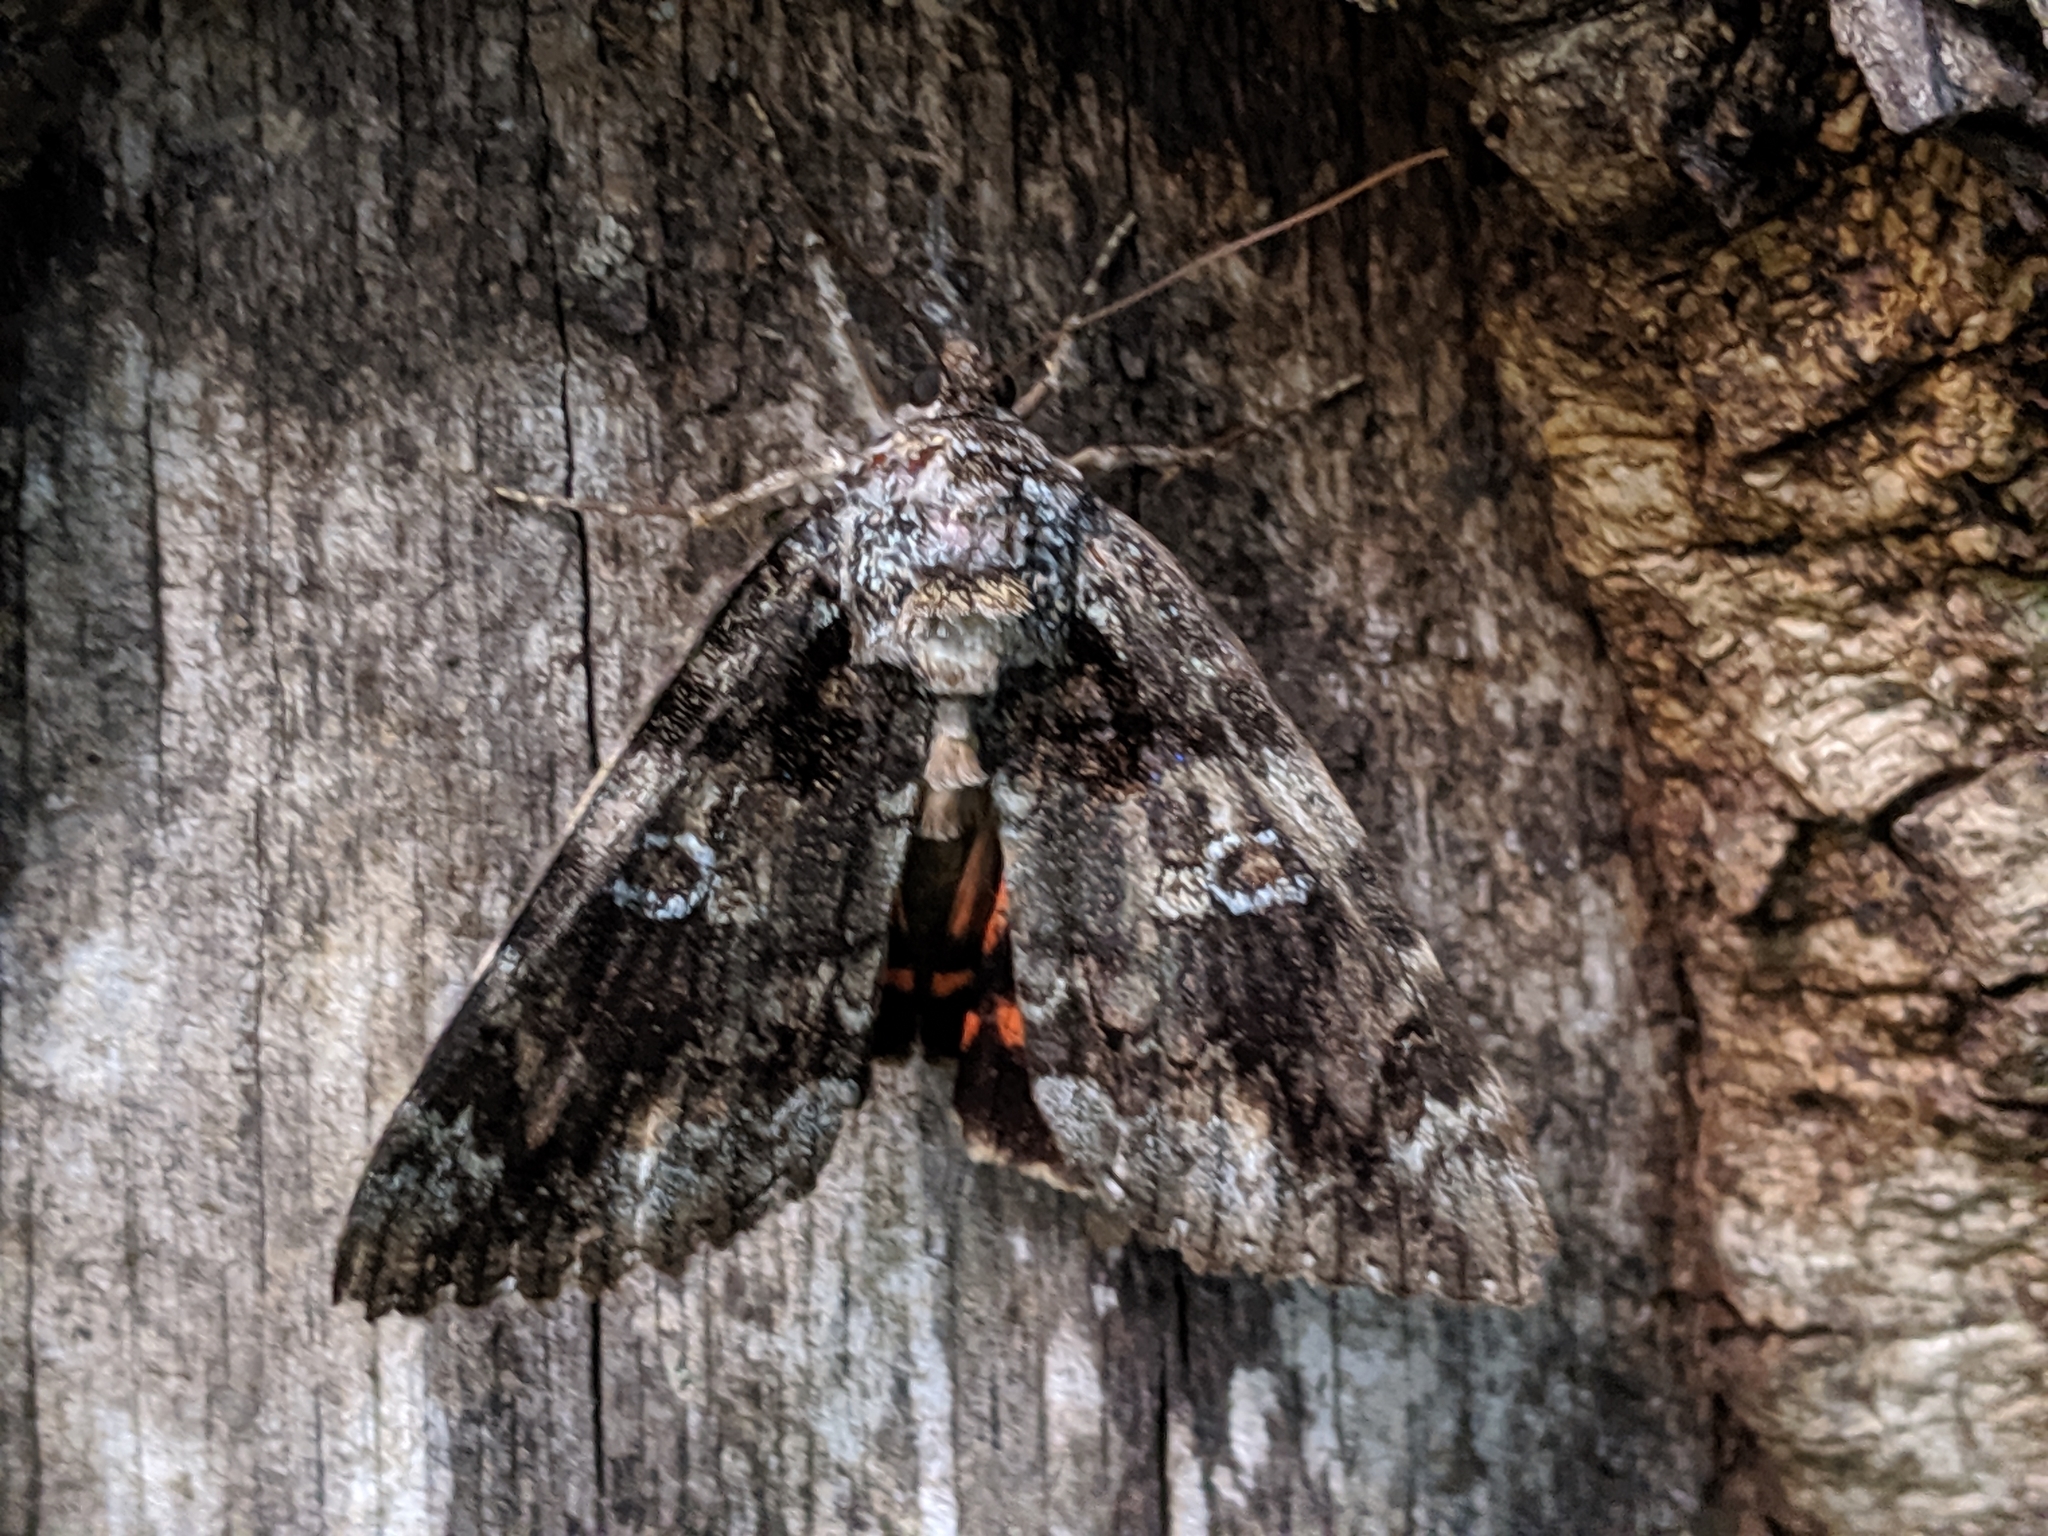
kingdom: Animalia
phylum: Arthropoda
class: Insecta
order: Lepidoptera
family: Erebidae
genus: Catocala
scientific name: Catocala ilia
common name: Ilia underwing
